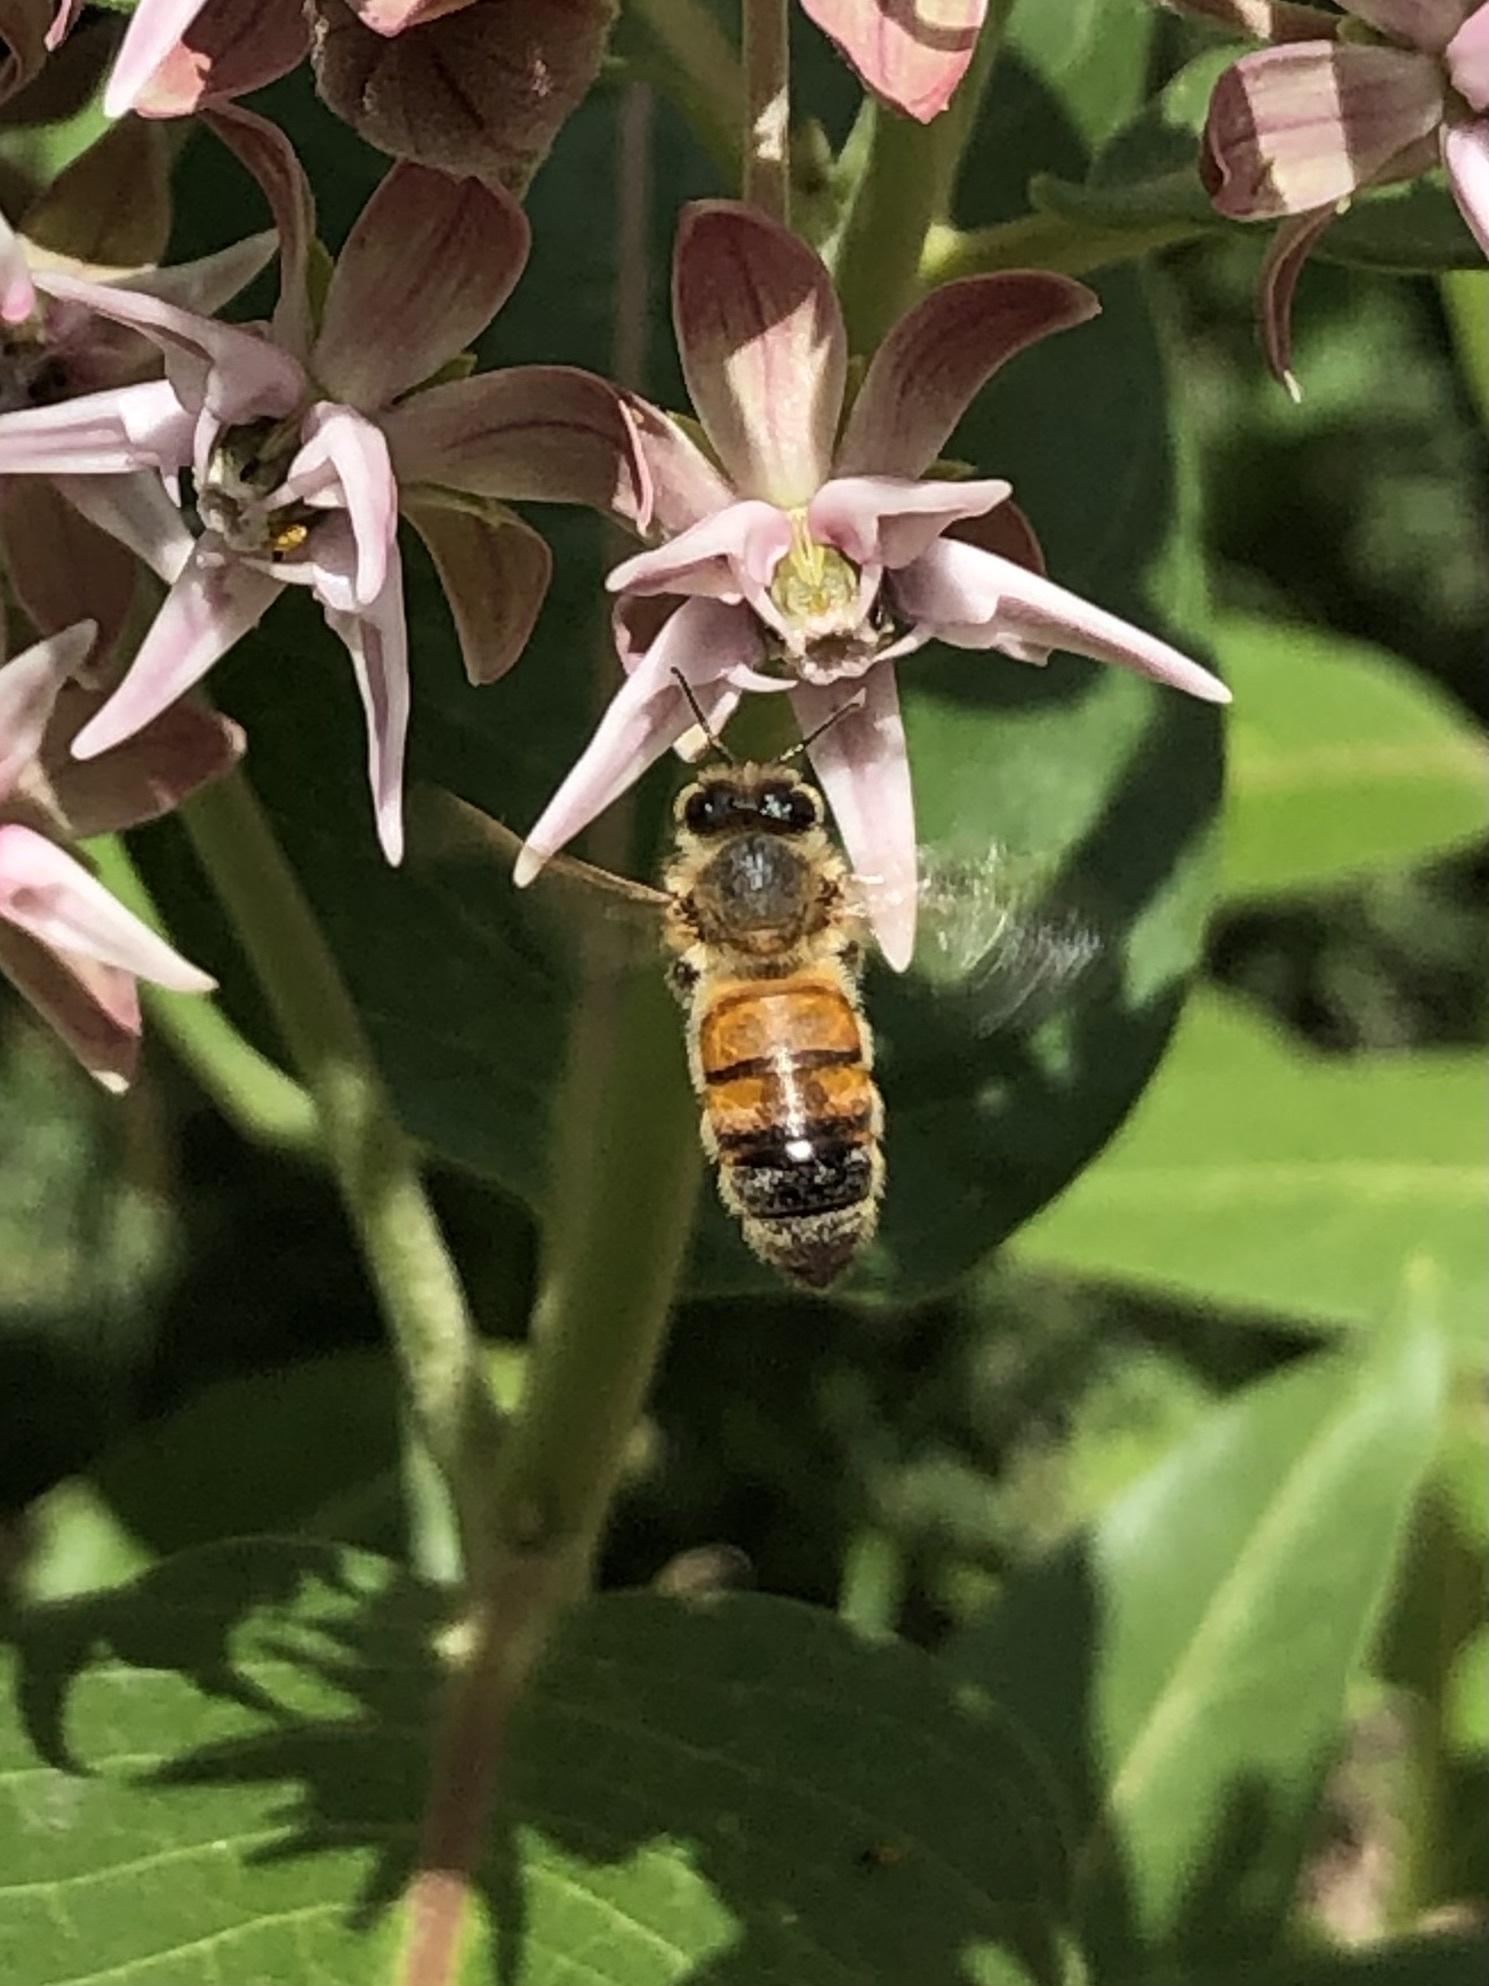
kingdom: Animalia
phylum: Arthropoda
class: Insecta
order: Hymenoptera
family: Apidae
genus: Apis
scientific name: Apis mellifera
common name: Honey bee
